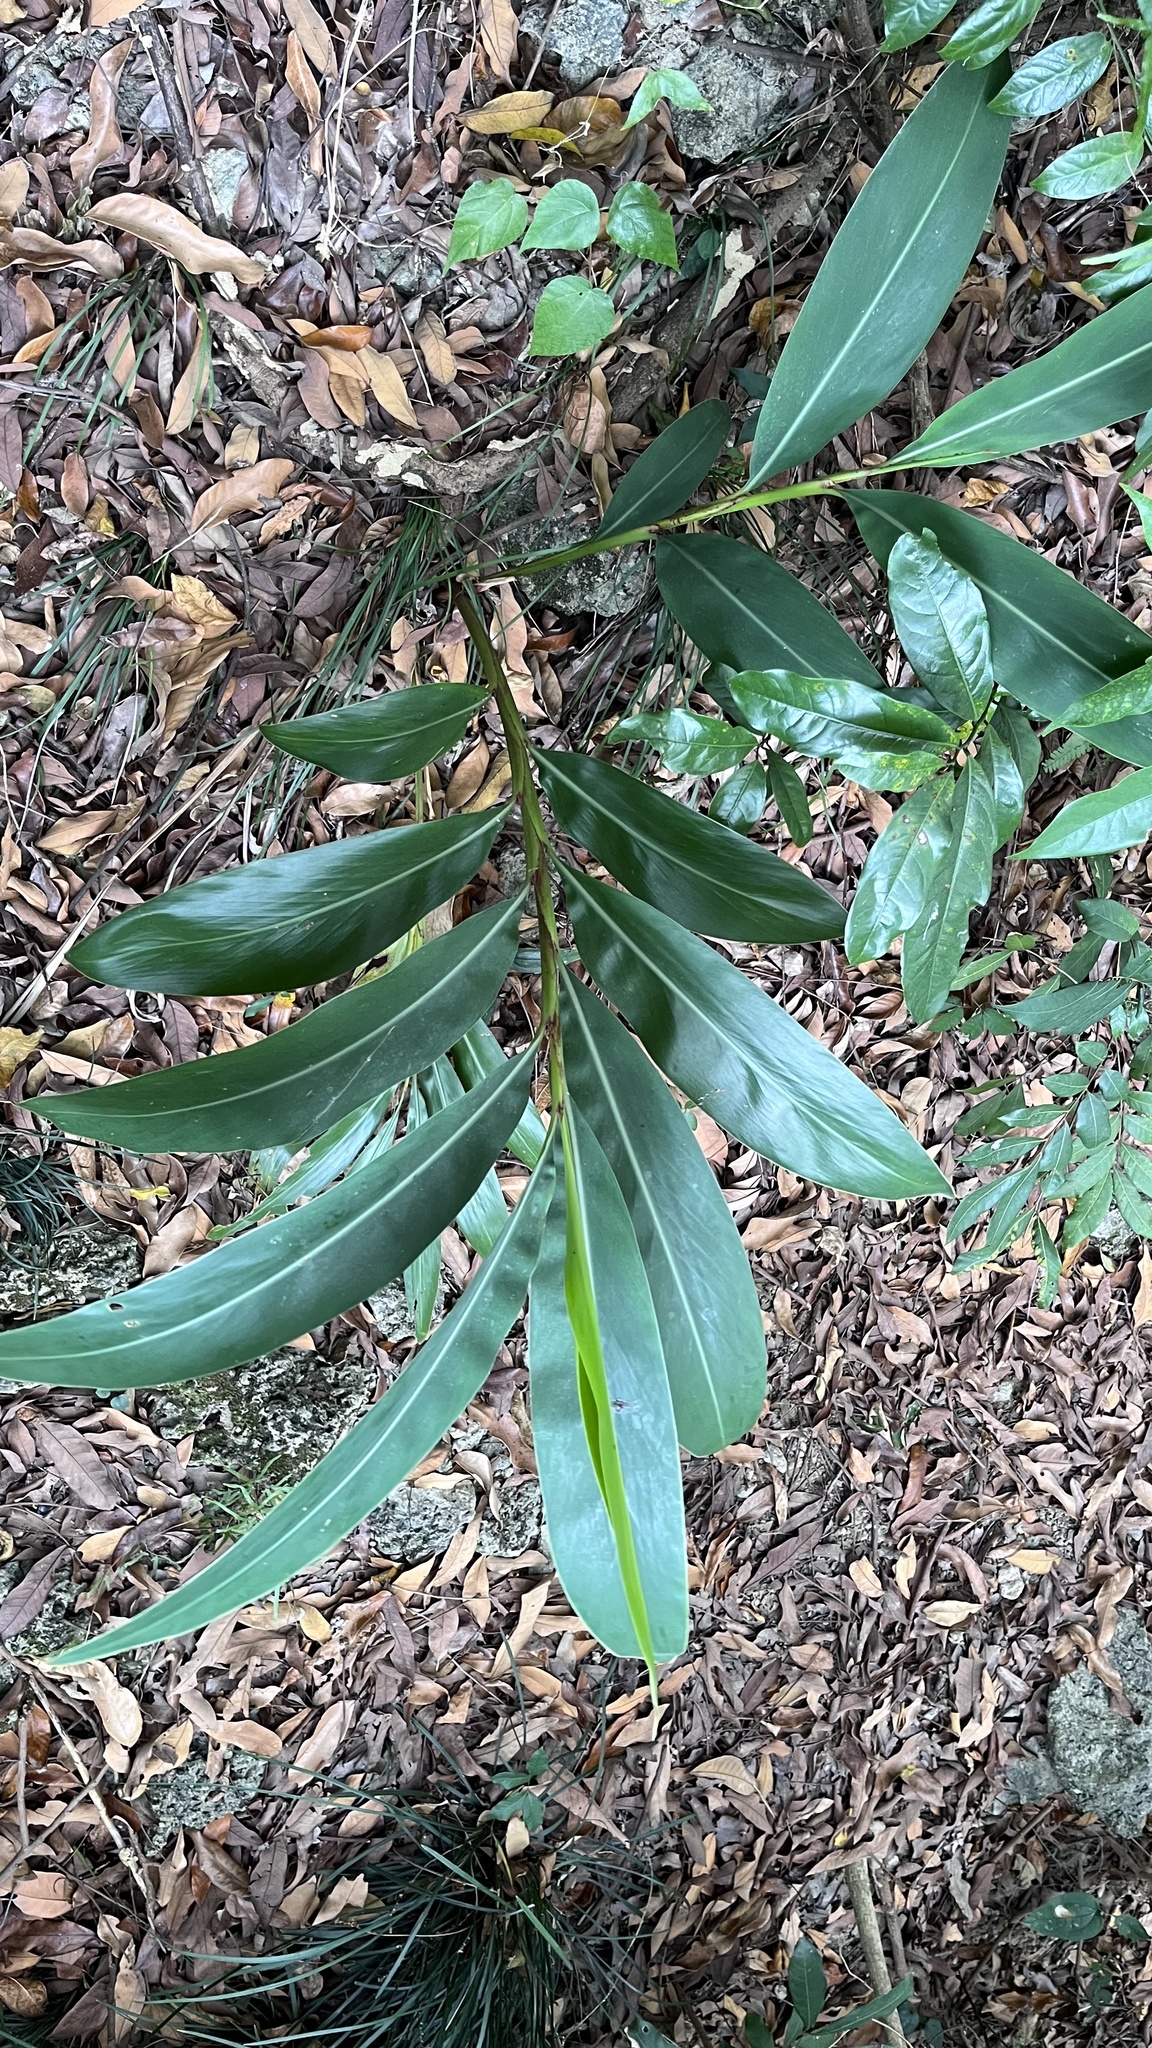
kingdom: Plantae
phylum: Tracheophyta
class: Liliopsida
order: Zingiberales
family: Zingiberaceae
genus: Alpinia
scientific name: Alpinia zerumbet
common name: Shellplant
